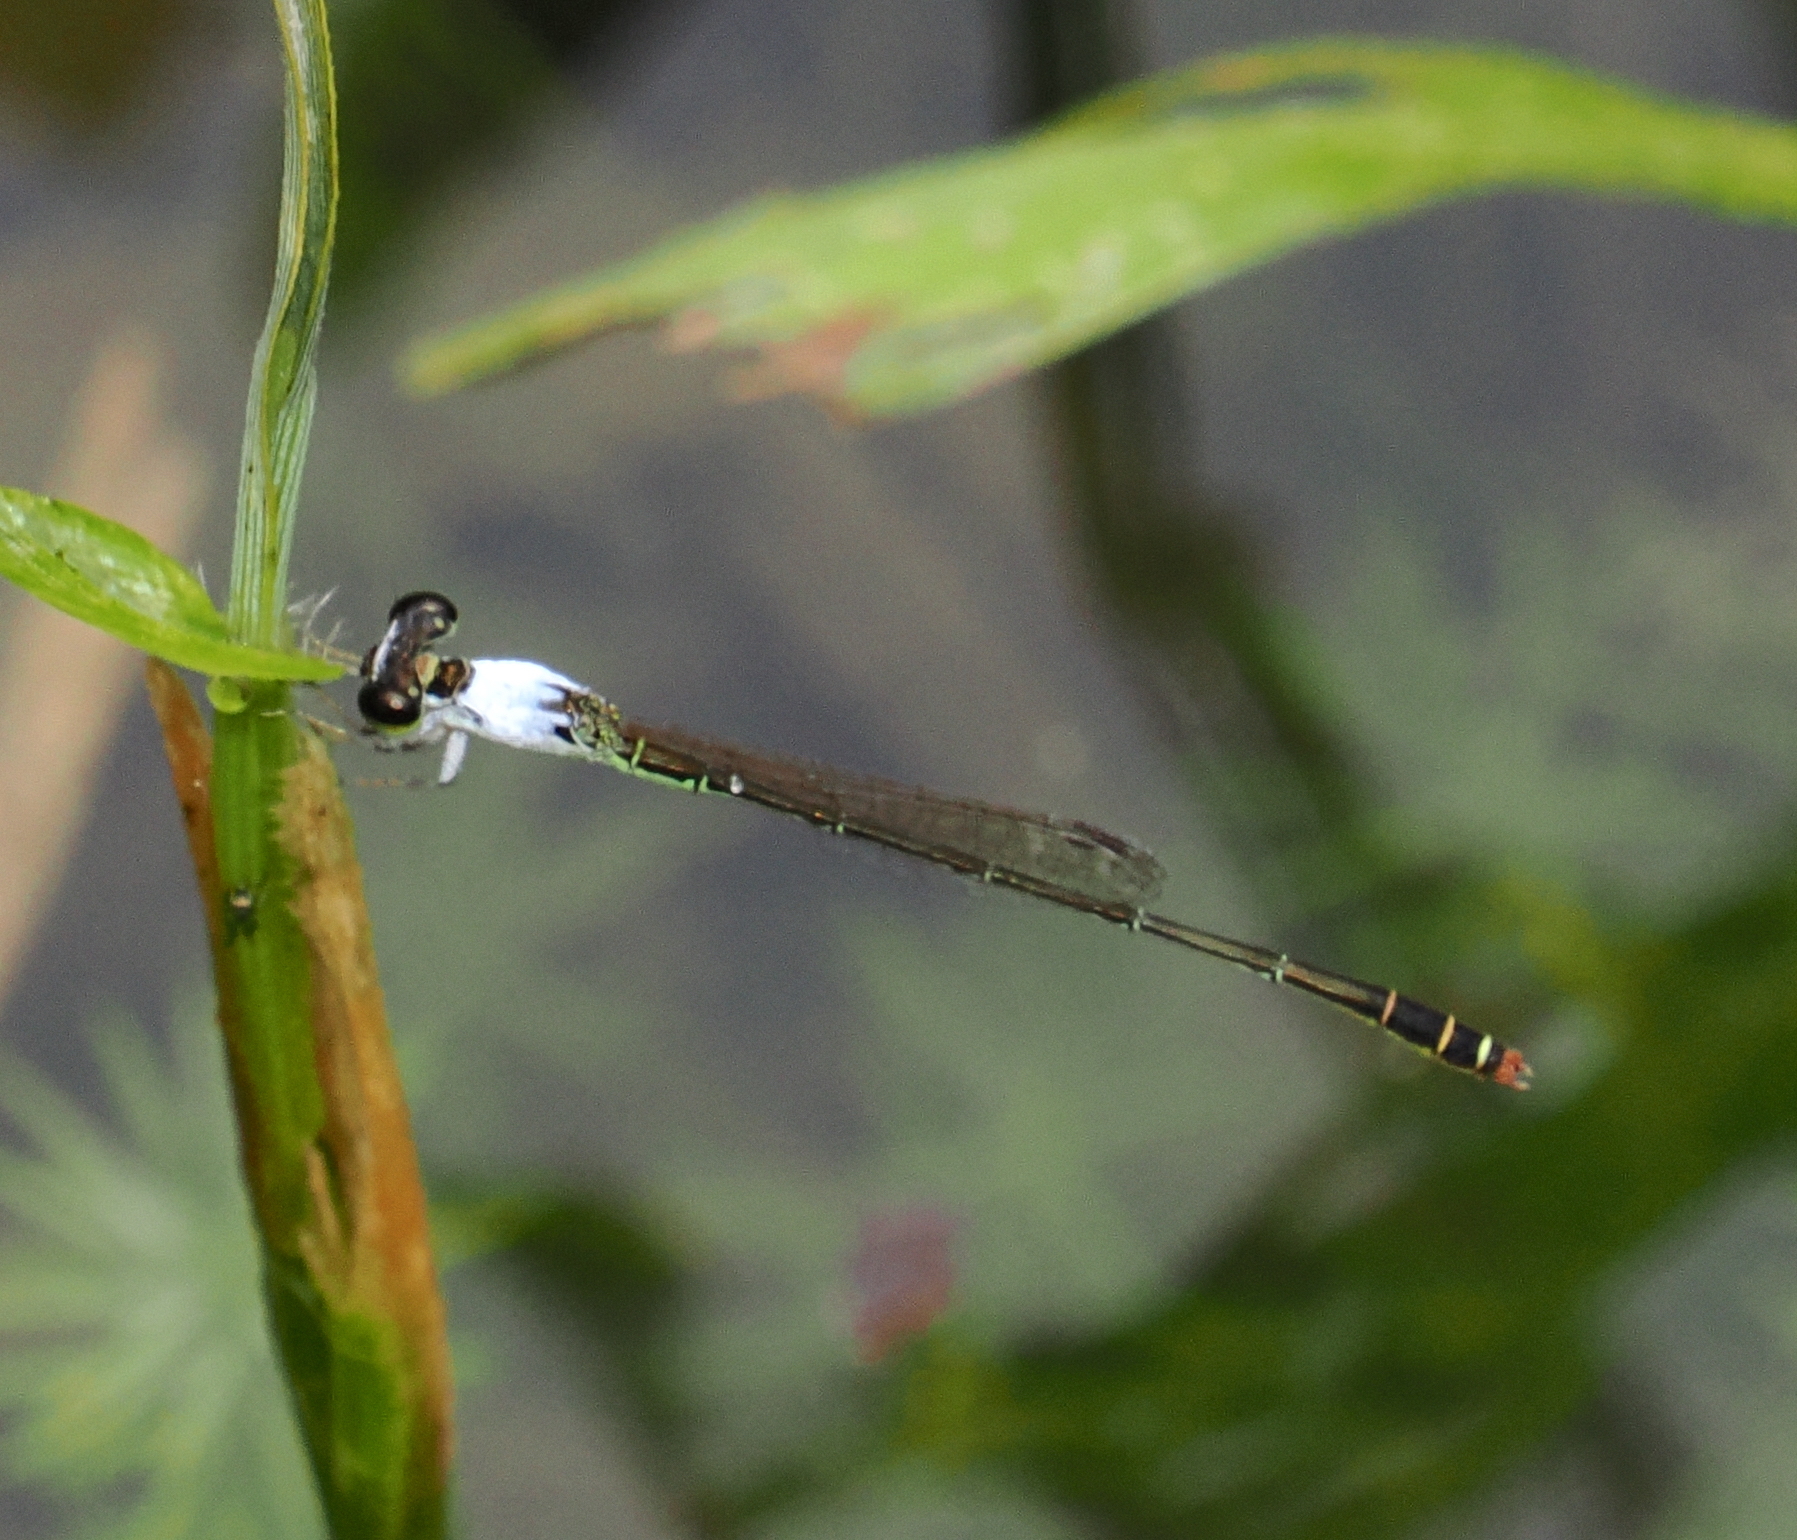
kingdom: Animalia
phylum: Arthropoda
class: Insecta
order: Odonata
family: Coenagrionidae
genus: Agriocnemis
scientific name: Agriocnemis femina
